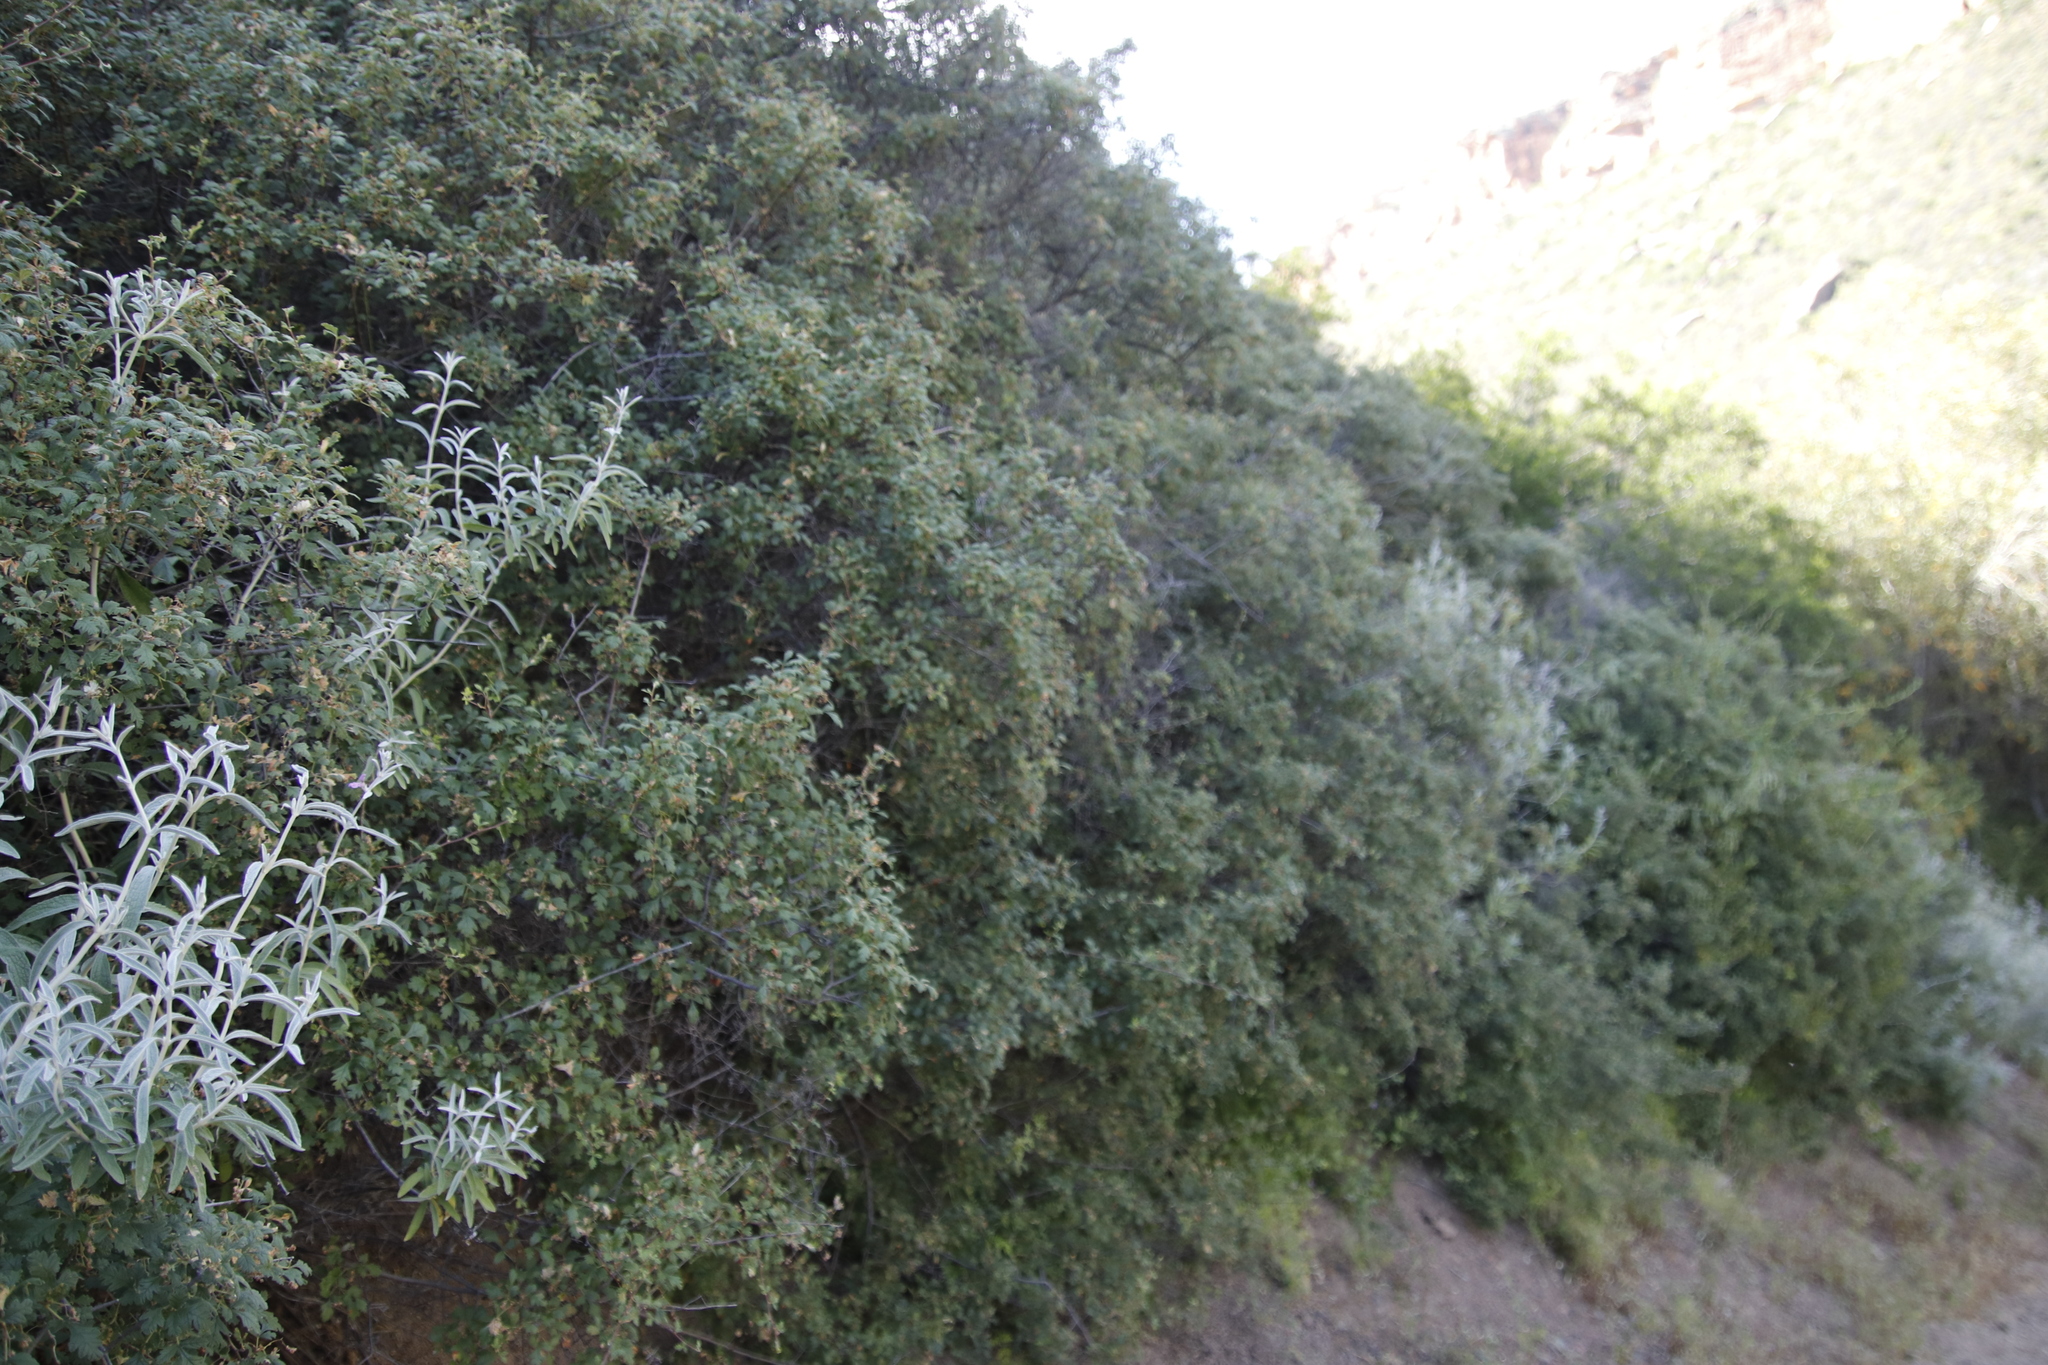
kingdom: Plantae
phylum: Tracheophyta
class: Magnoliopsida
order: Sapindales
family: Anacardiaceae
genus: Searsia
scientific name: Searsia incisa
